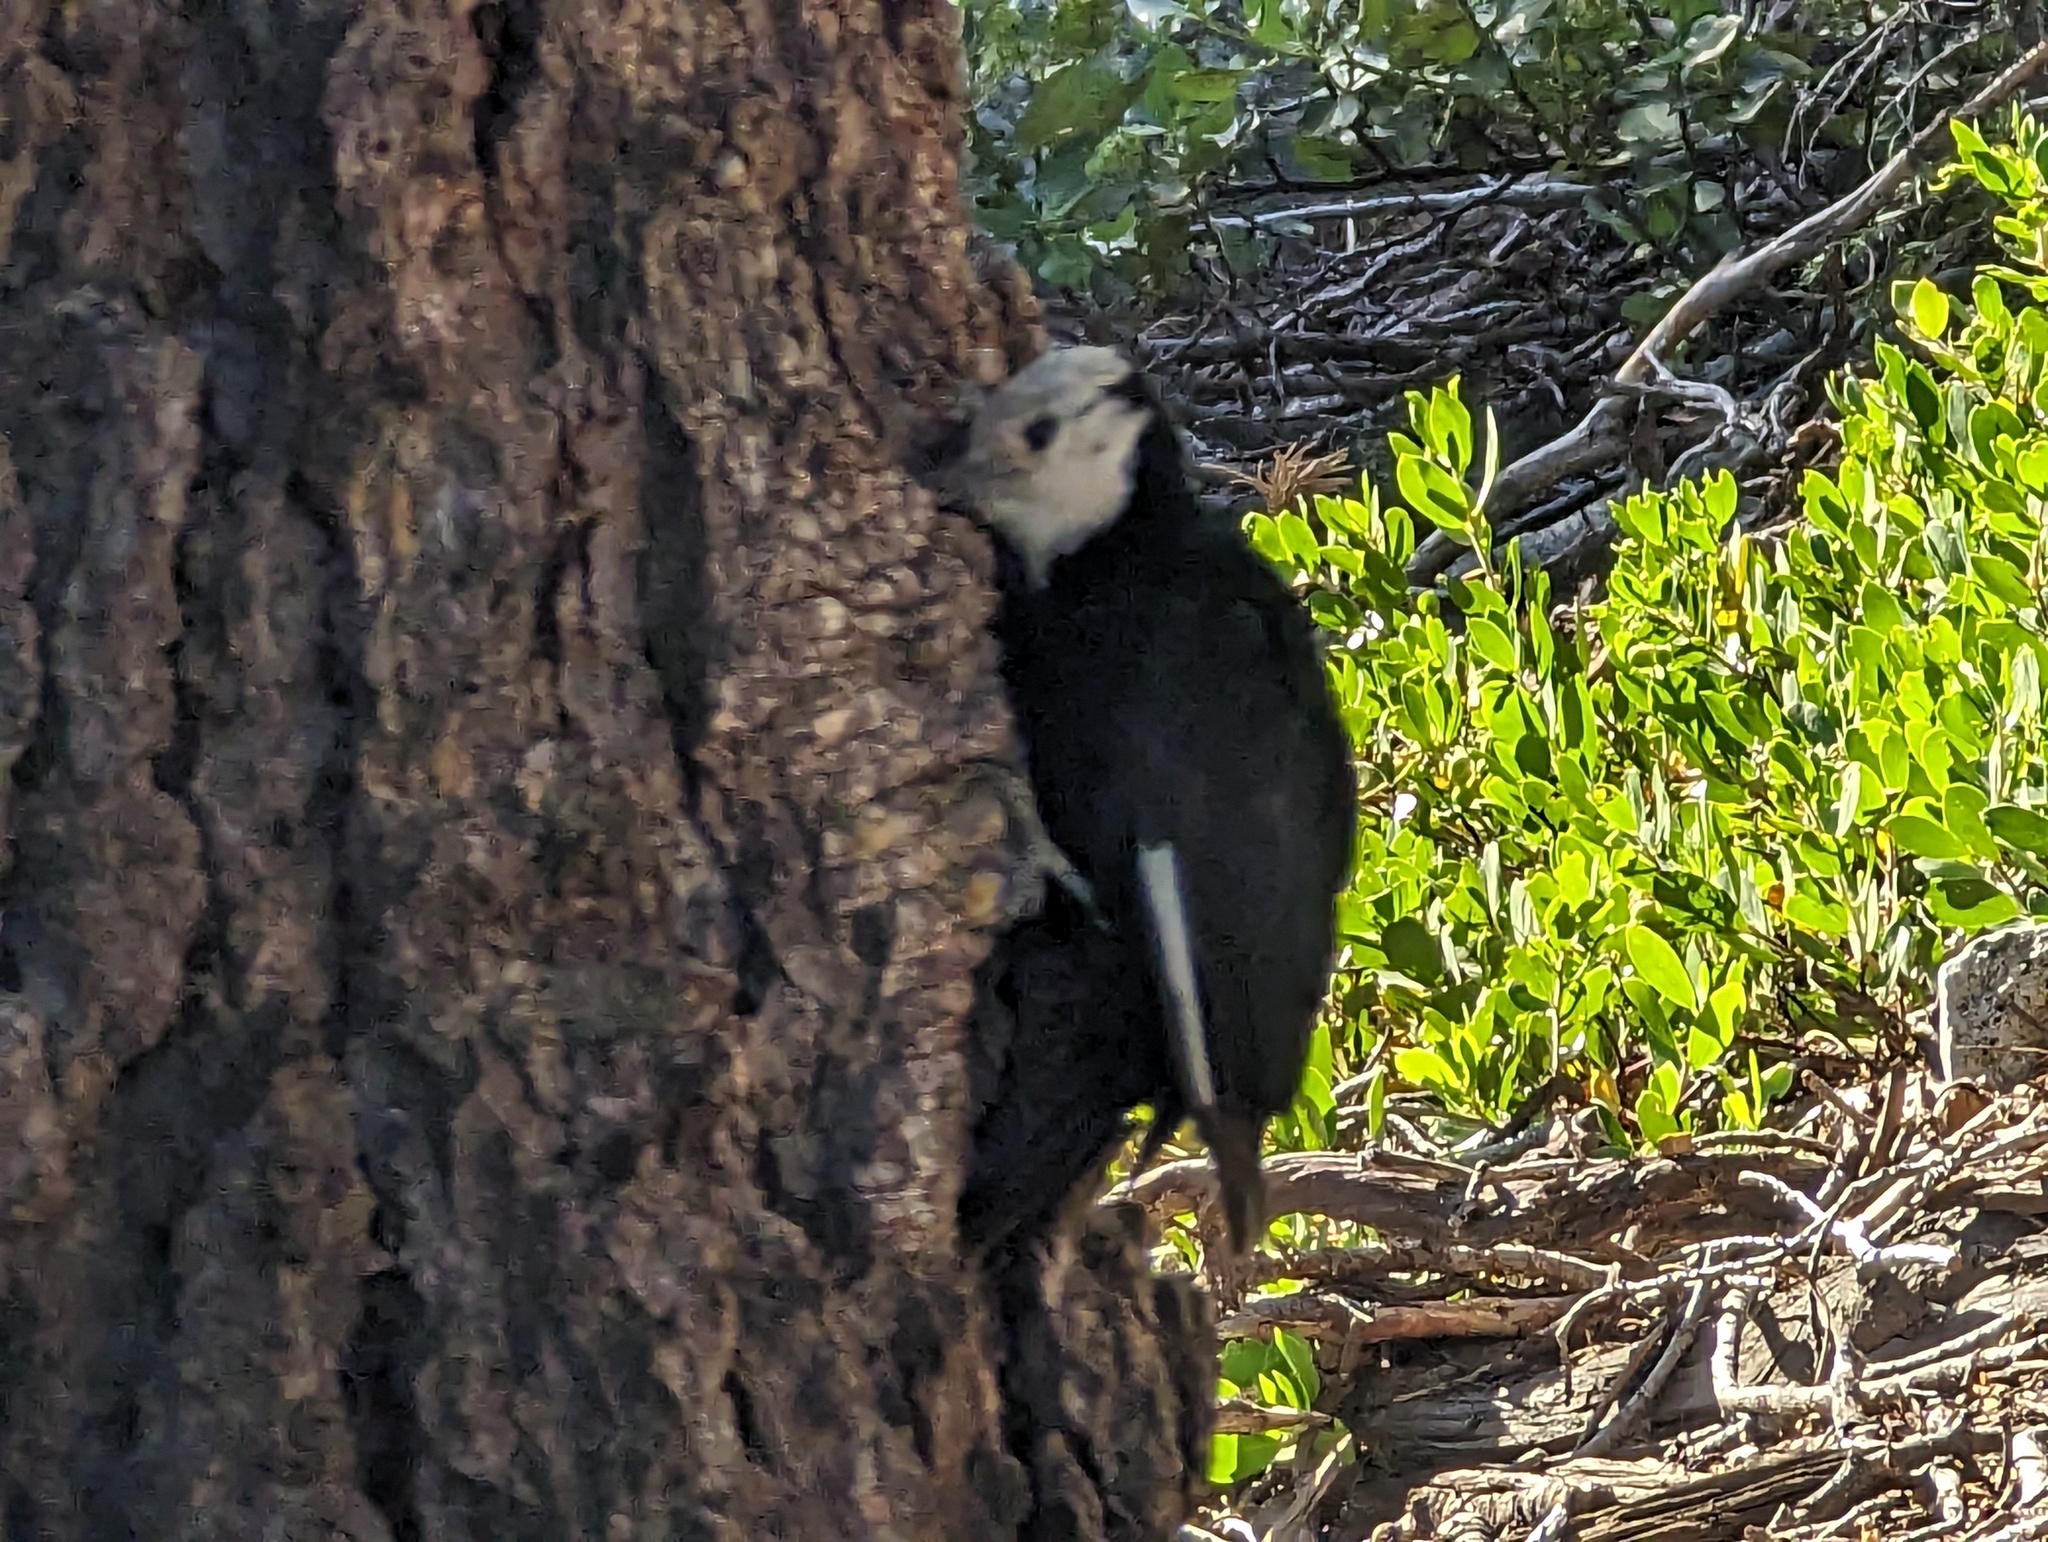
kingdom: Animalia
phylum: Chordata
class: Aves
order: Piciformes
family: Picidae
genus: Leuconotopicus
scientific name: Leuconotopicus albolarvatus
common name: White-headed woodpecker
